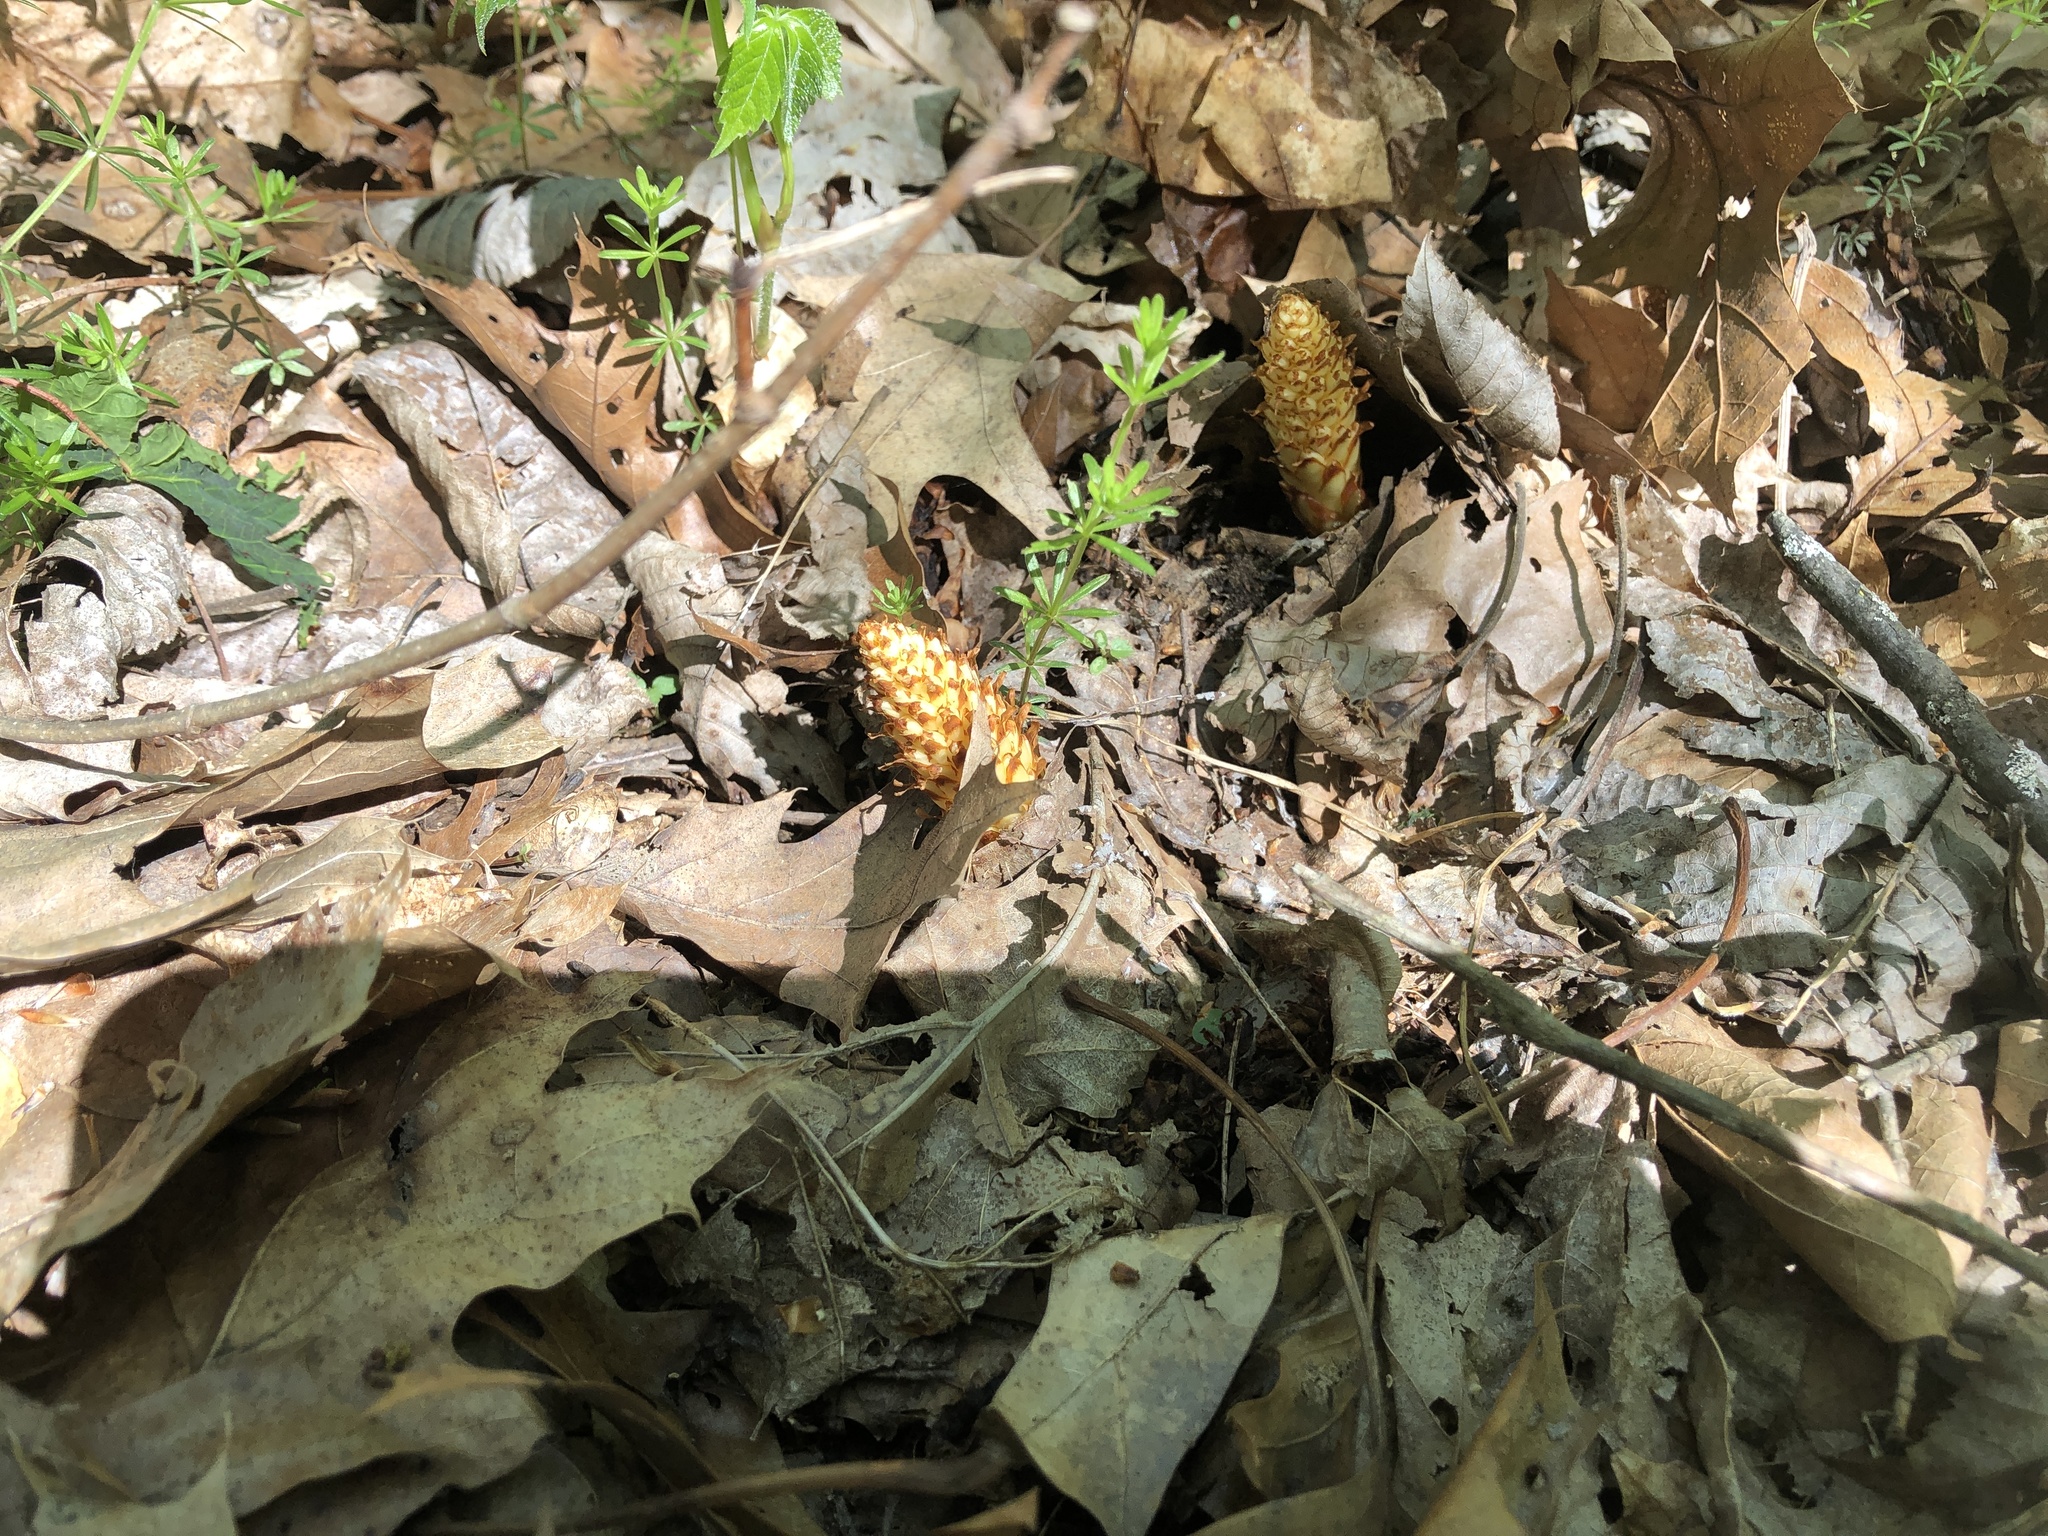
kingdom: Plantae
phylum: Tracheophyta
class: Magnoliopsida
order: Lamiales
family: Orobanchaceae
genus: Conopholis
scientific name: Conopholis americana
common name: American cancer-root
